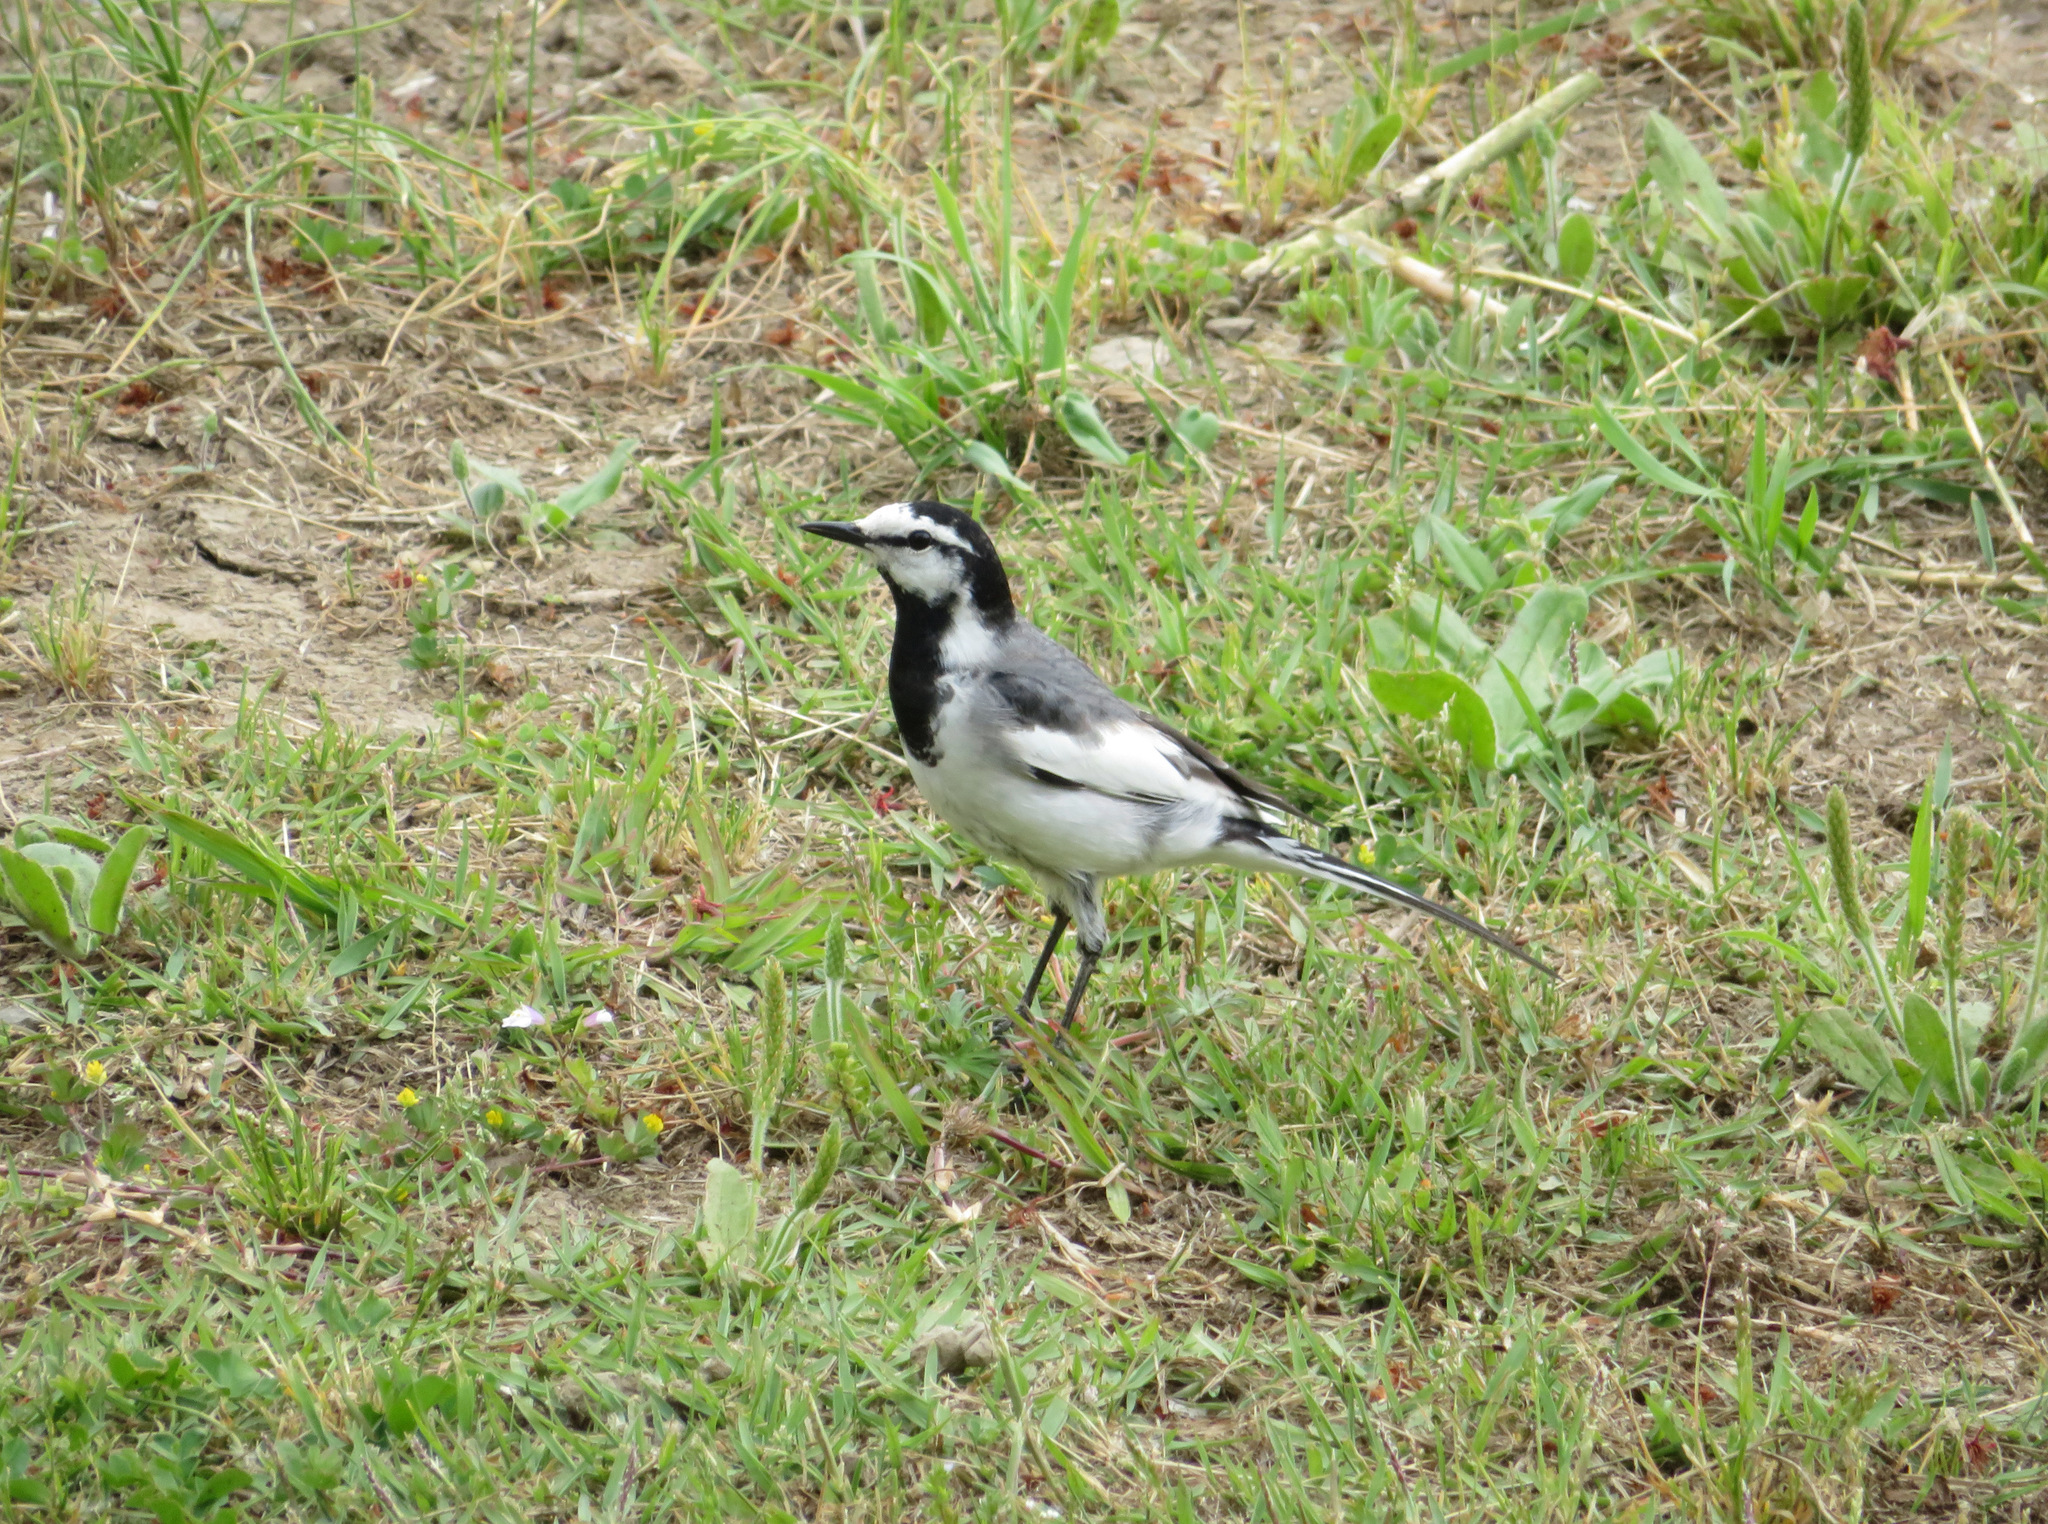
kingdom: Animalia
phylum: Chordata
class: Aves
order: Passeriformes
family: Motacillidae
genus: Motacilla
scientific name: Motacilla alba
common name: White wagtail
